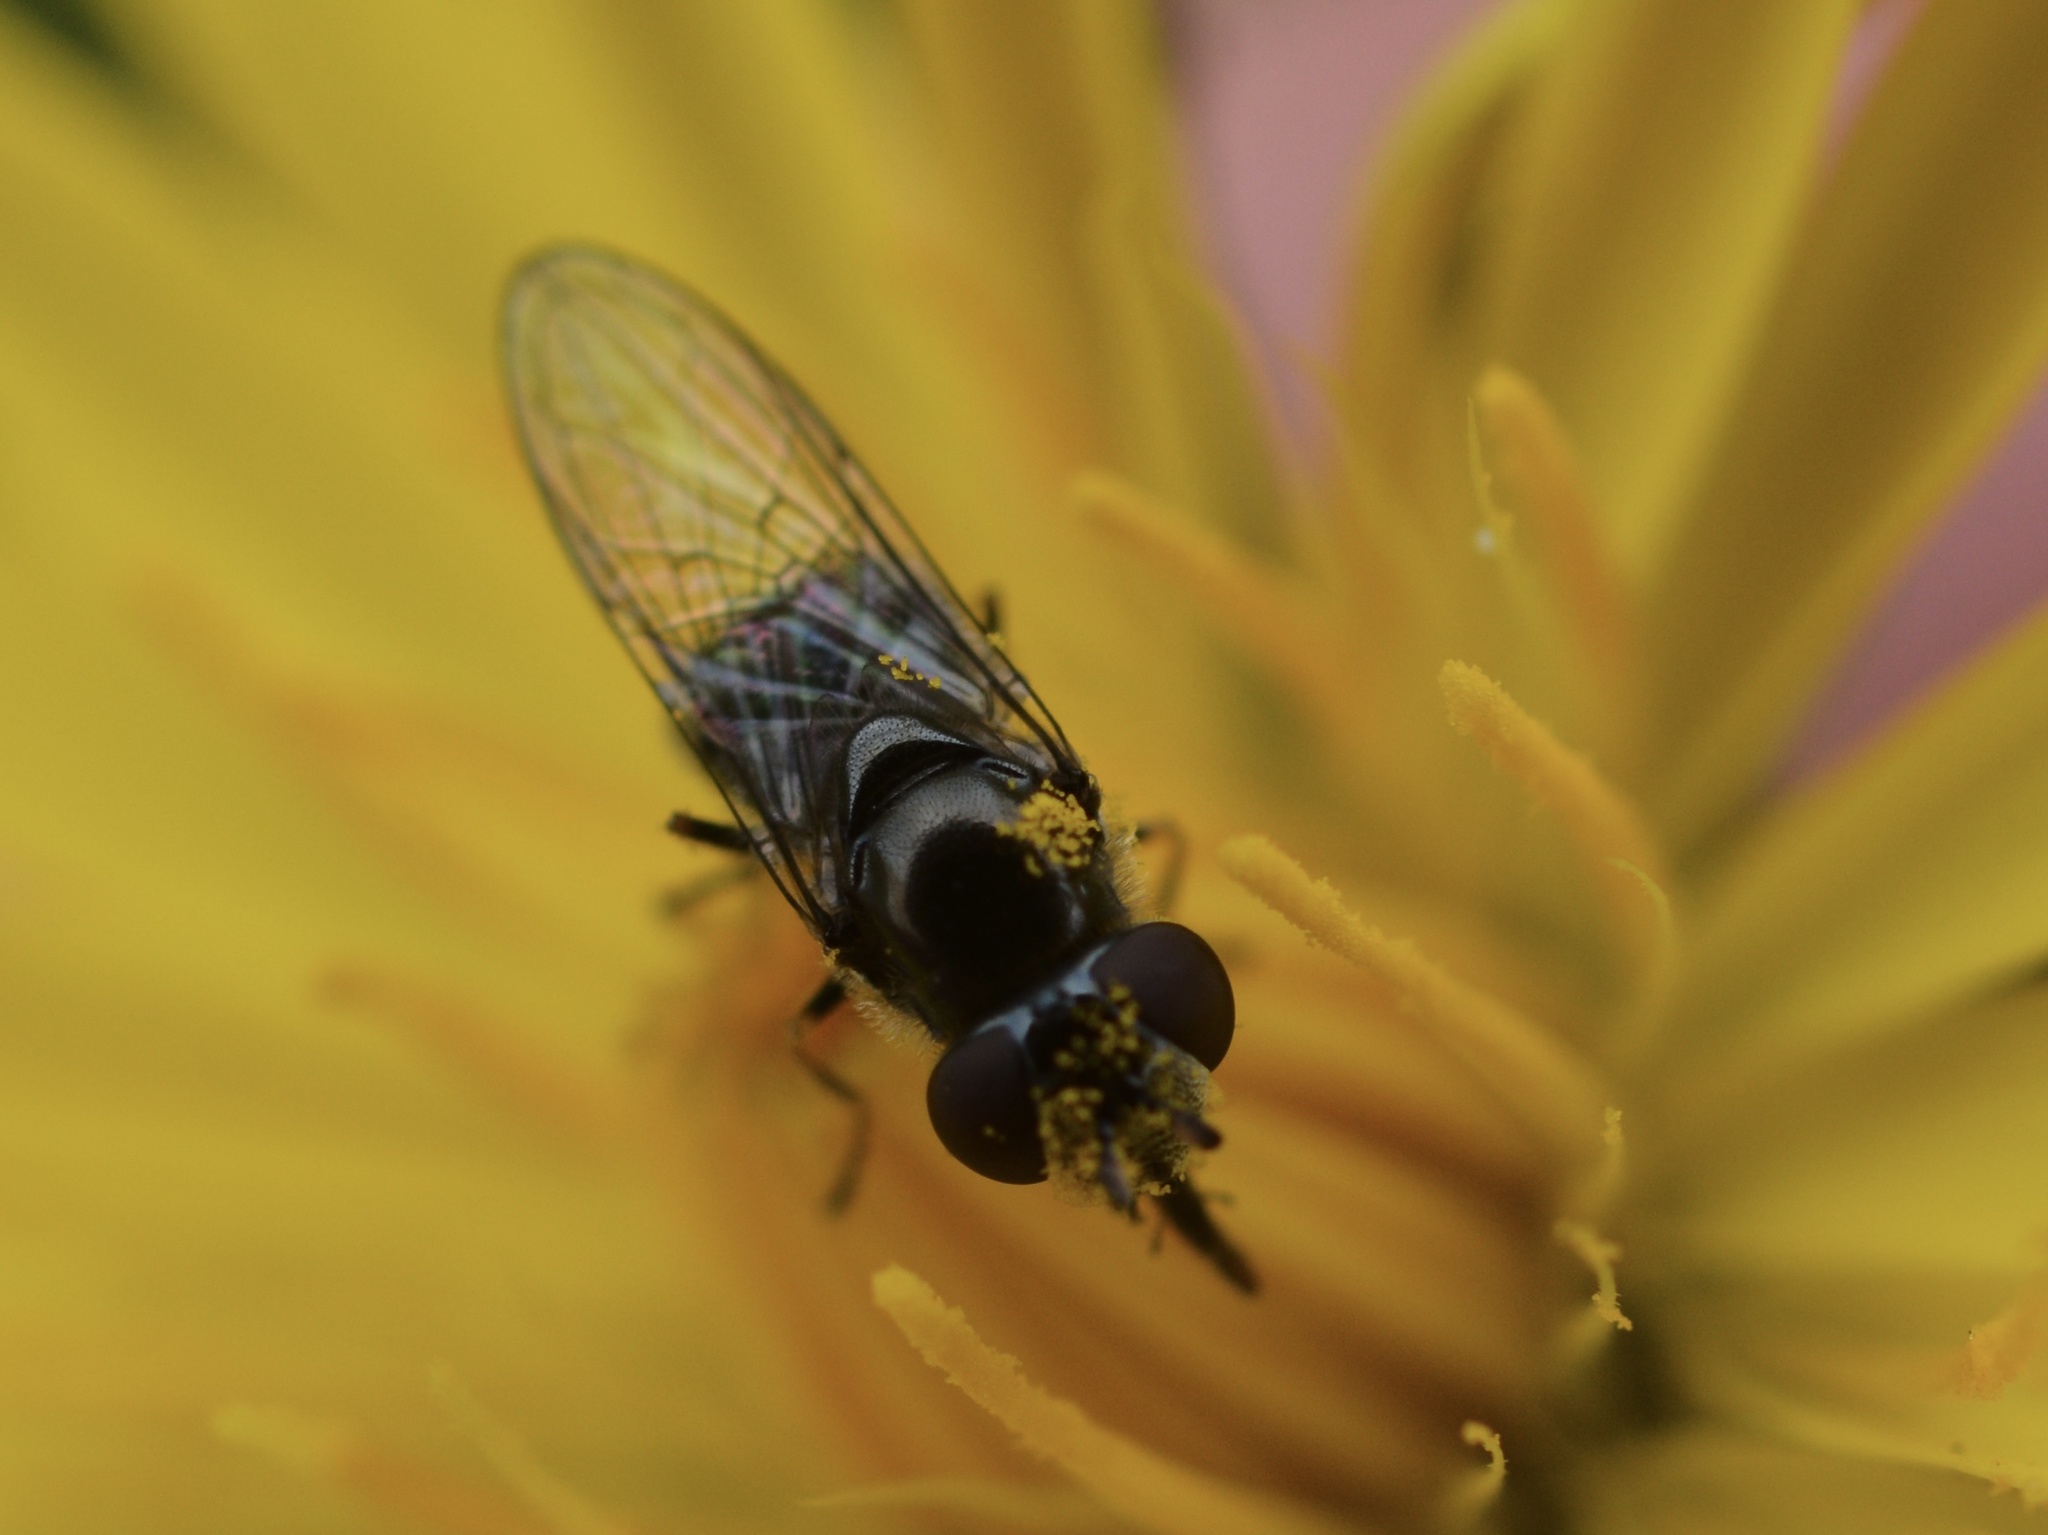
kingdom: Animalia
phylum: Arthropoda
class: Insecta
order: Diptera
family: Syrphidae
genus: Platycheirus
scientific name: Platycheirus stegnus
